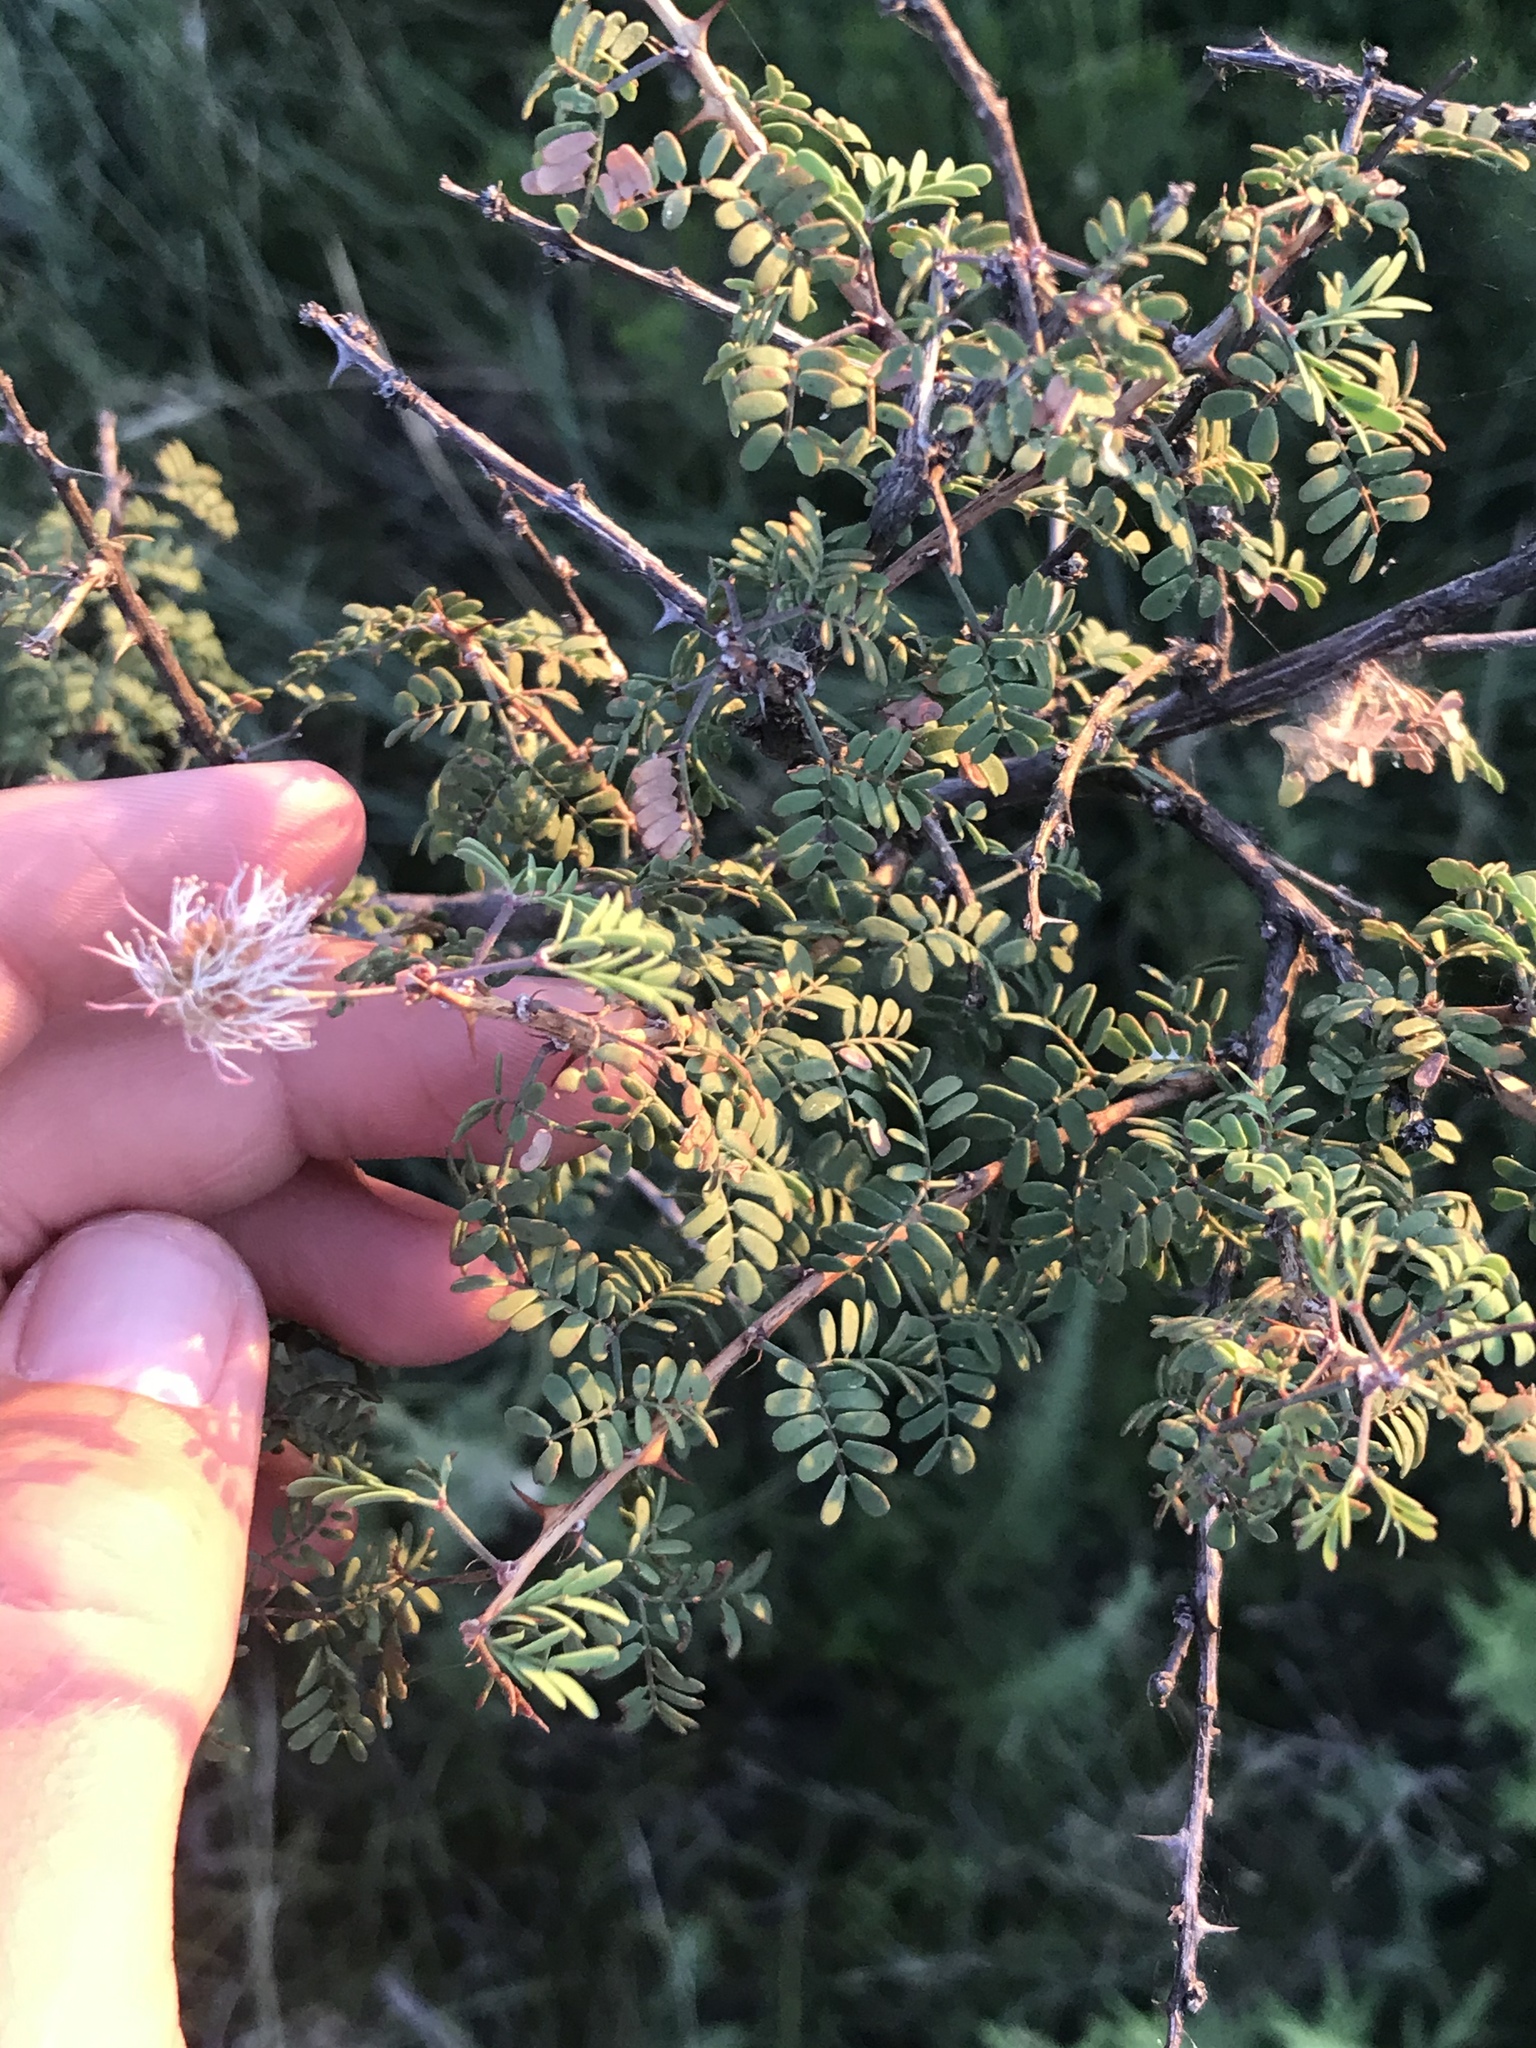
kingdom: Plantae
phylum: Tracheophyta
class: Magnoliopsida
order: Fabales
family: Fabaceae
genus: Mimosa
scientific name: Mimosa borealis
